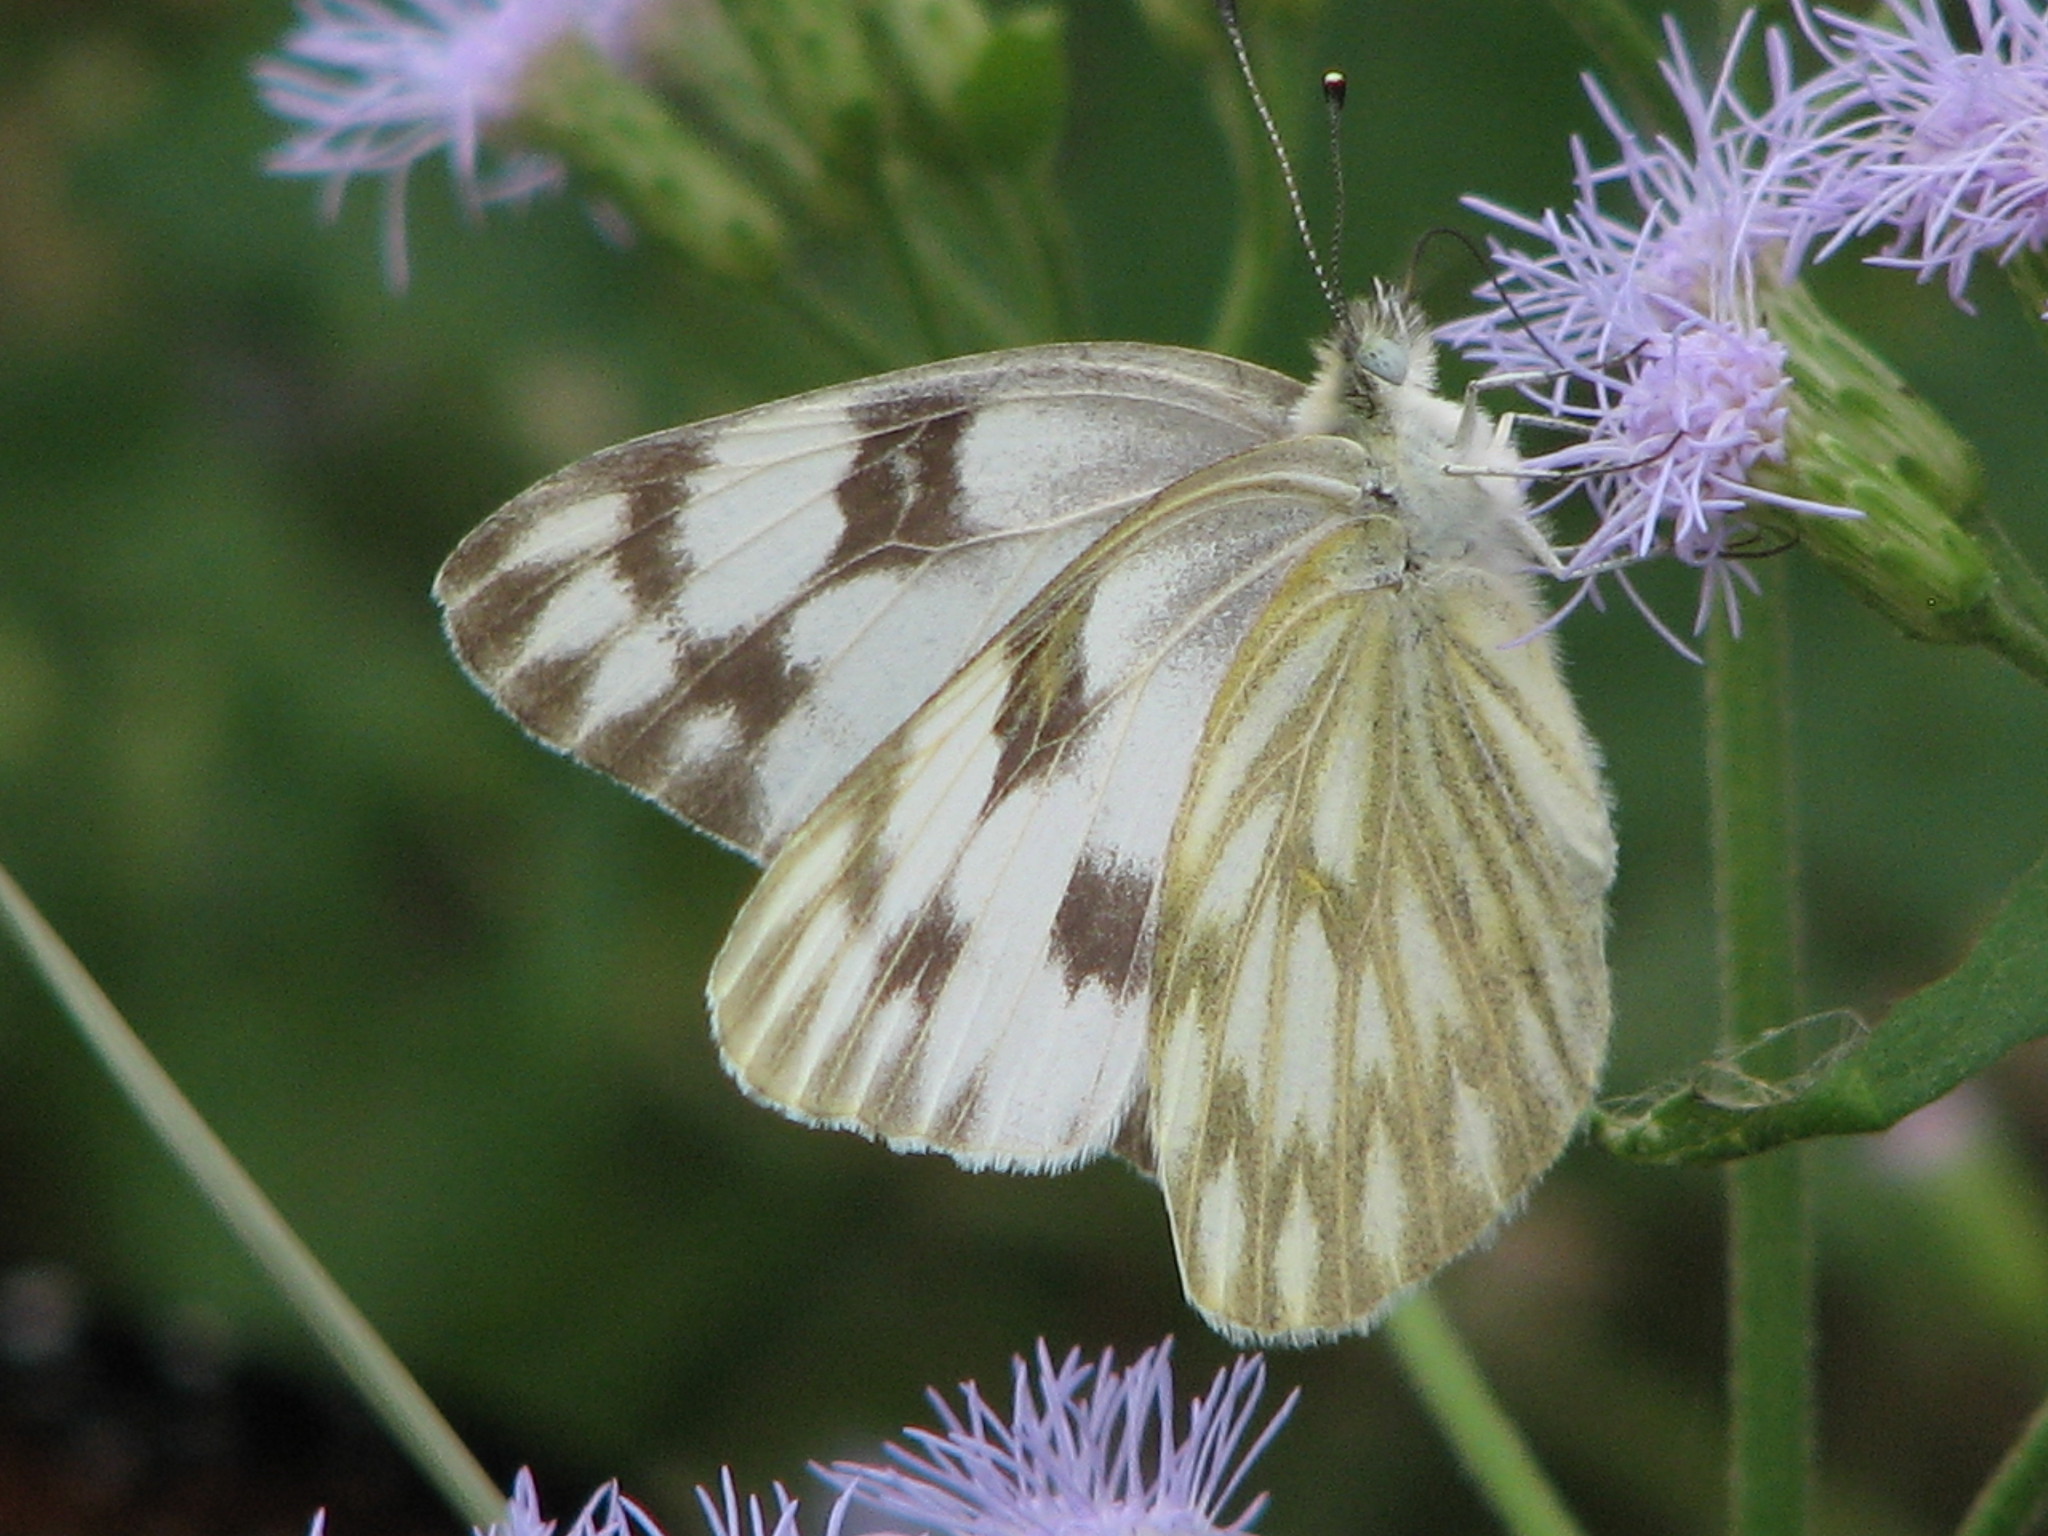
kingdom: Animalia
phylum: Arthropoda
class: Insecta
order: Lepidoptera
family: Pieridae
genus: Pontia
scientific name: Pontia protodice
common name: Checkered white
